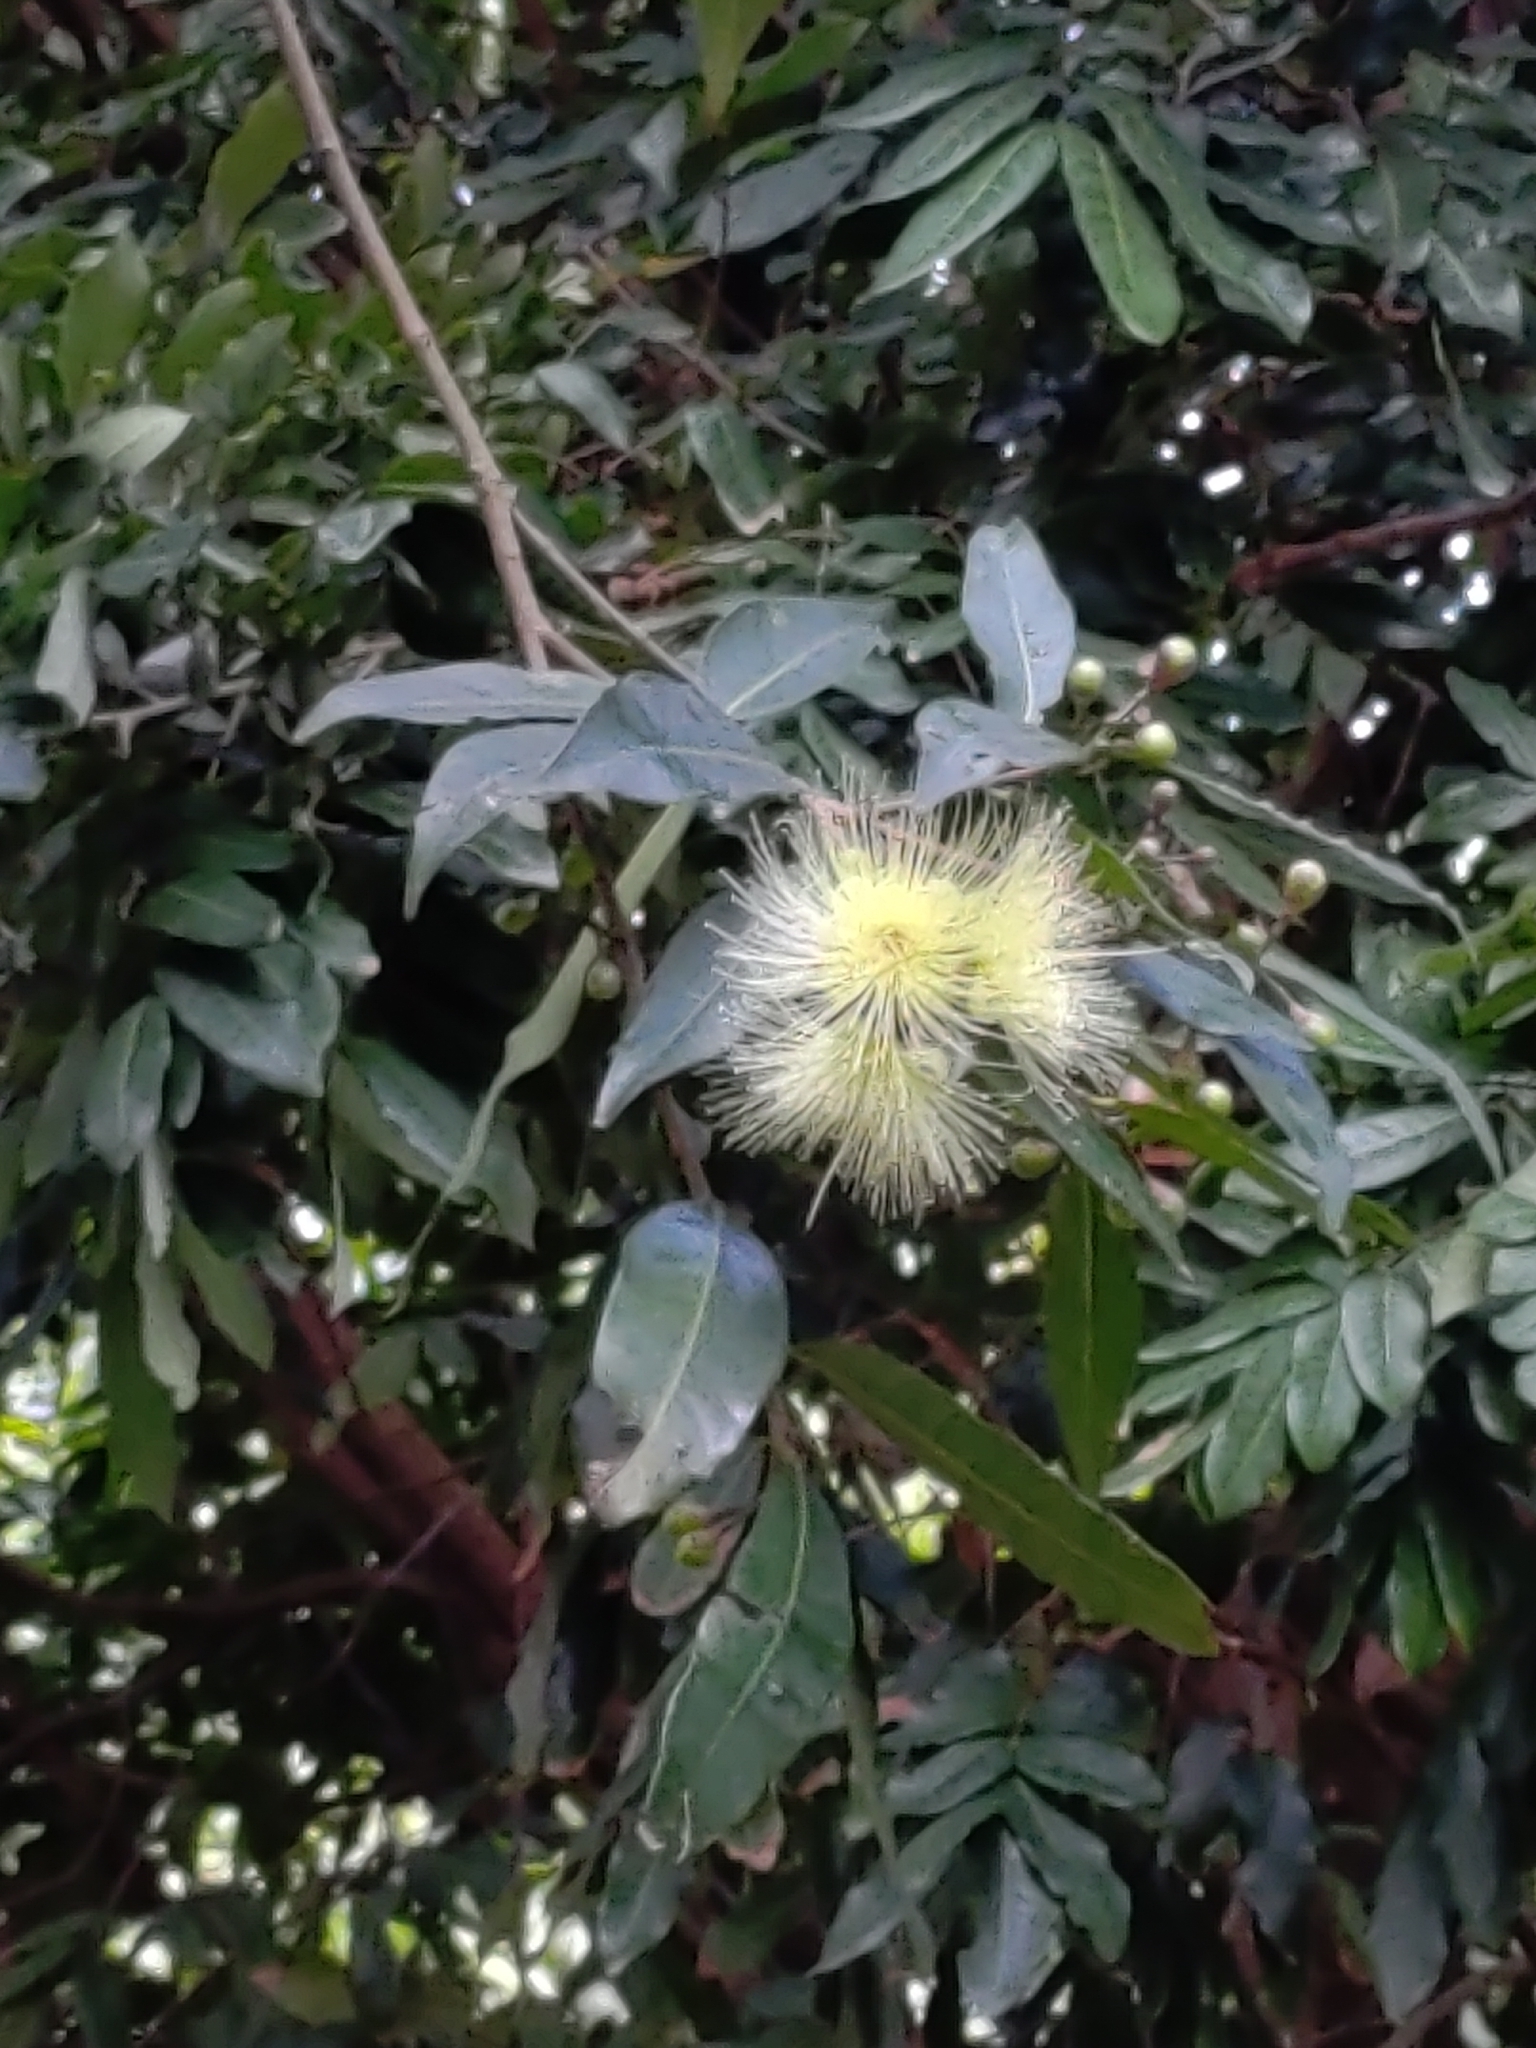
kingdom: Plantae
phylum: Tracheophyta
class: Magnoliopsida
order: Myrtales
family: Myrtaceae
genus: Syzygium
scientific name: Syzygium jambos
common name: Malabar plum
